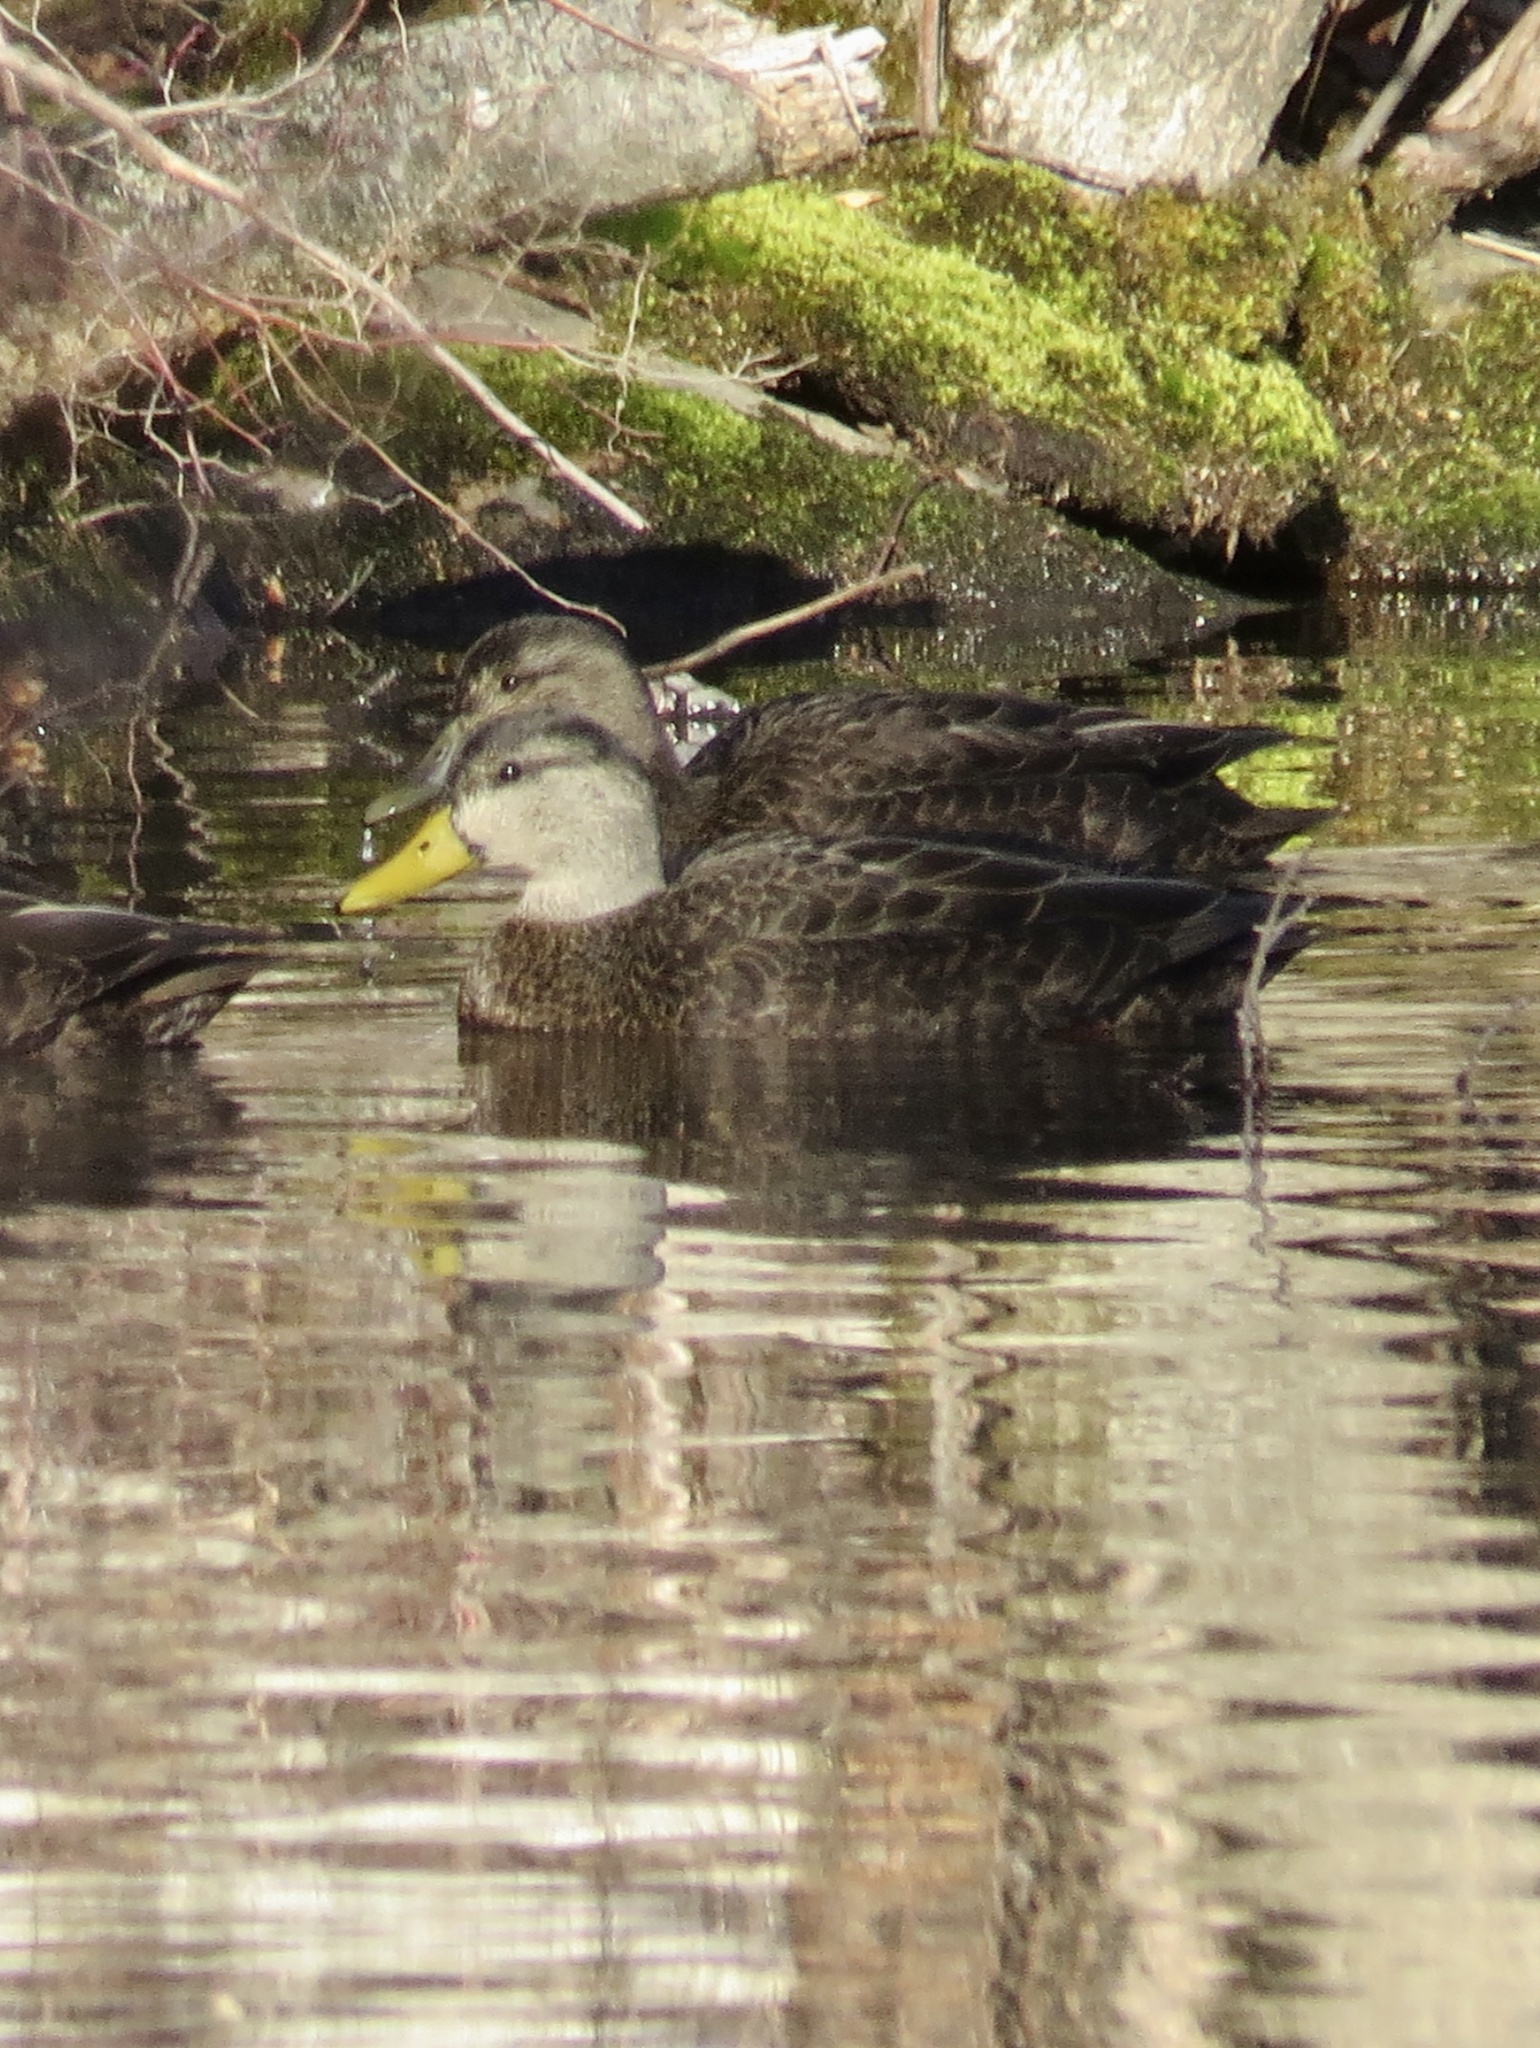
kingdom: Animalia
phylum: Chordata
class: Aves
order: Anseriformes
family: Anatidae
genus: Anas
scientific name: Anas rubripes
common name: American black duck
